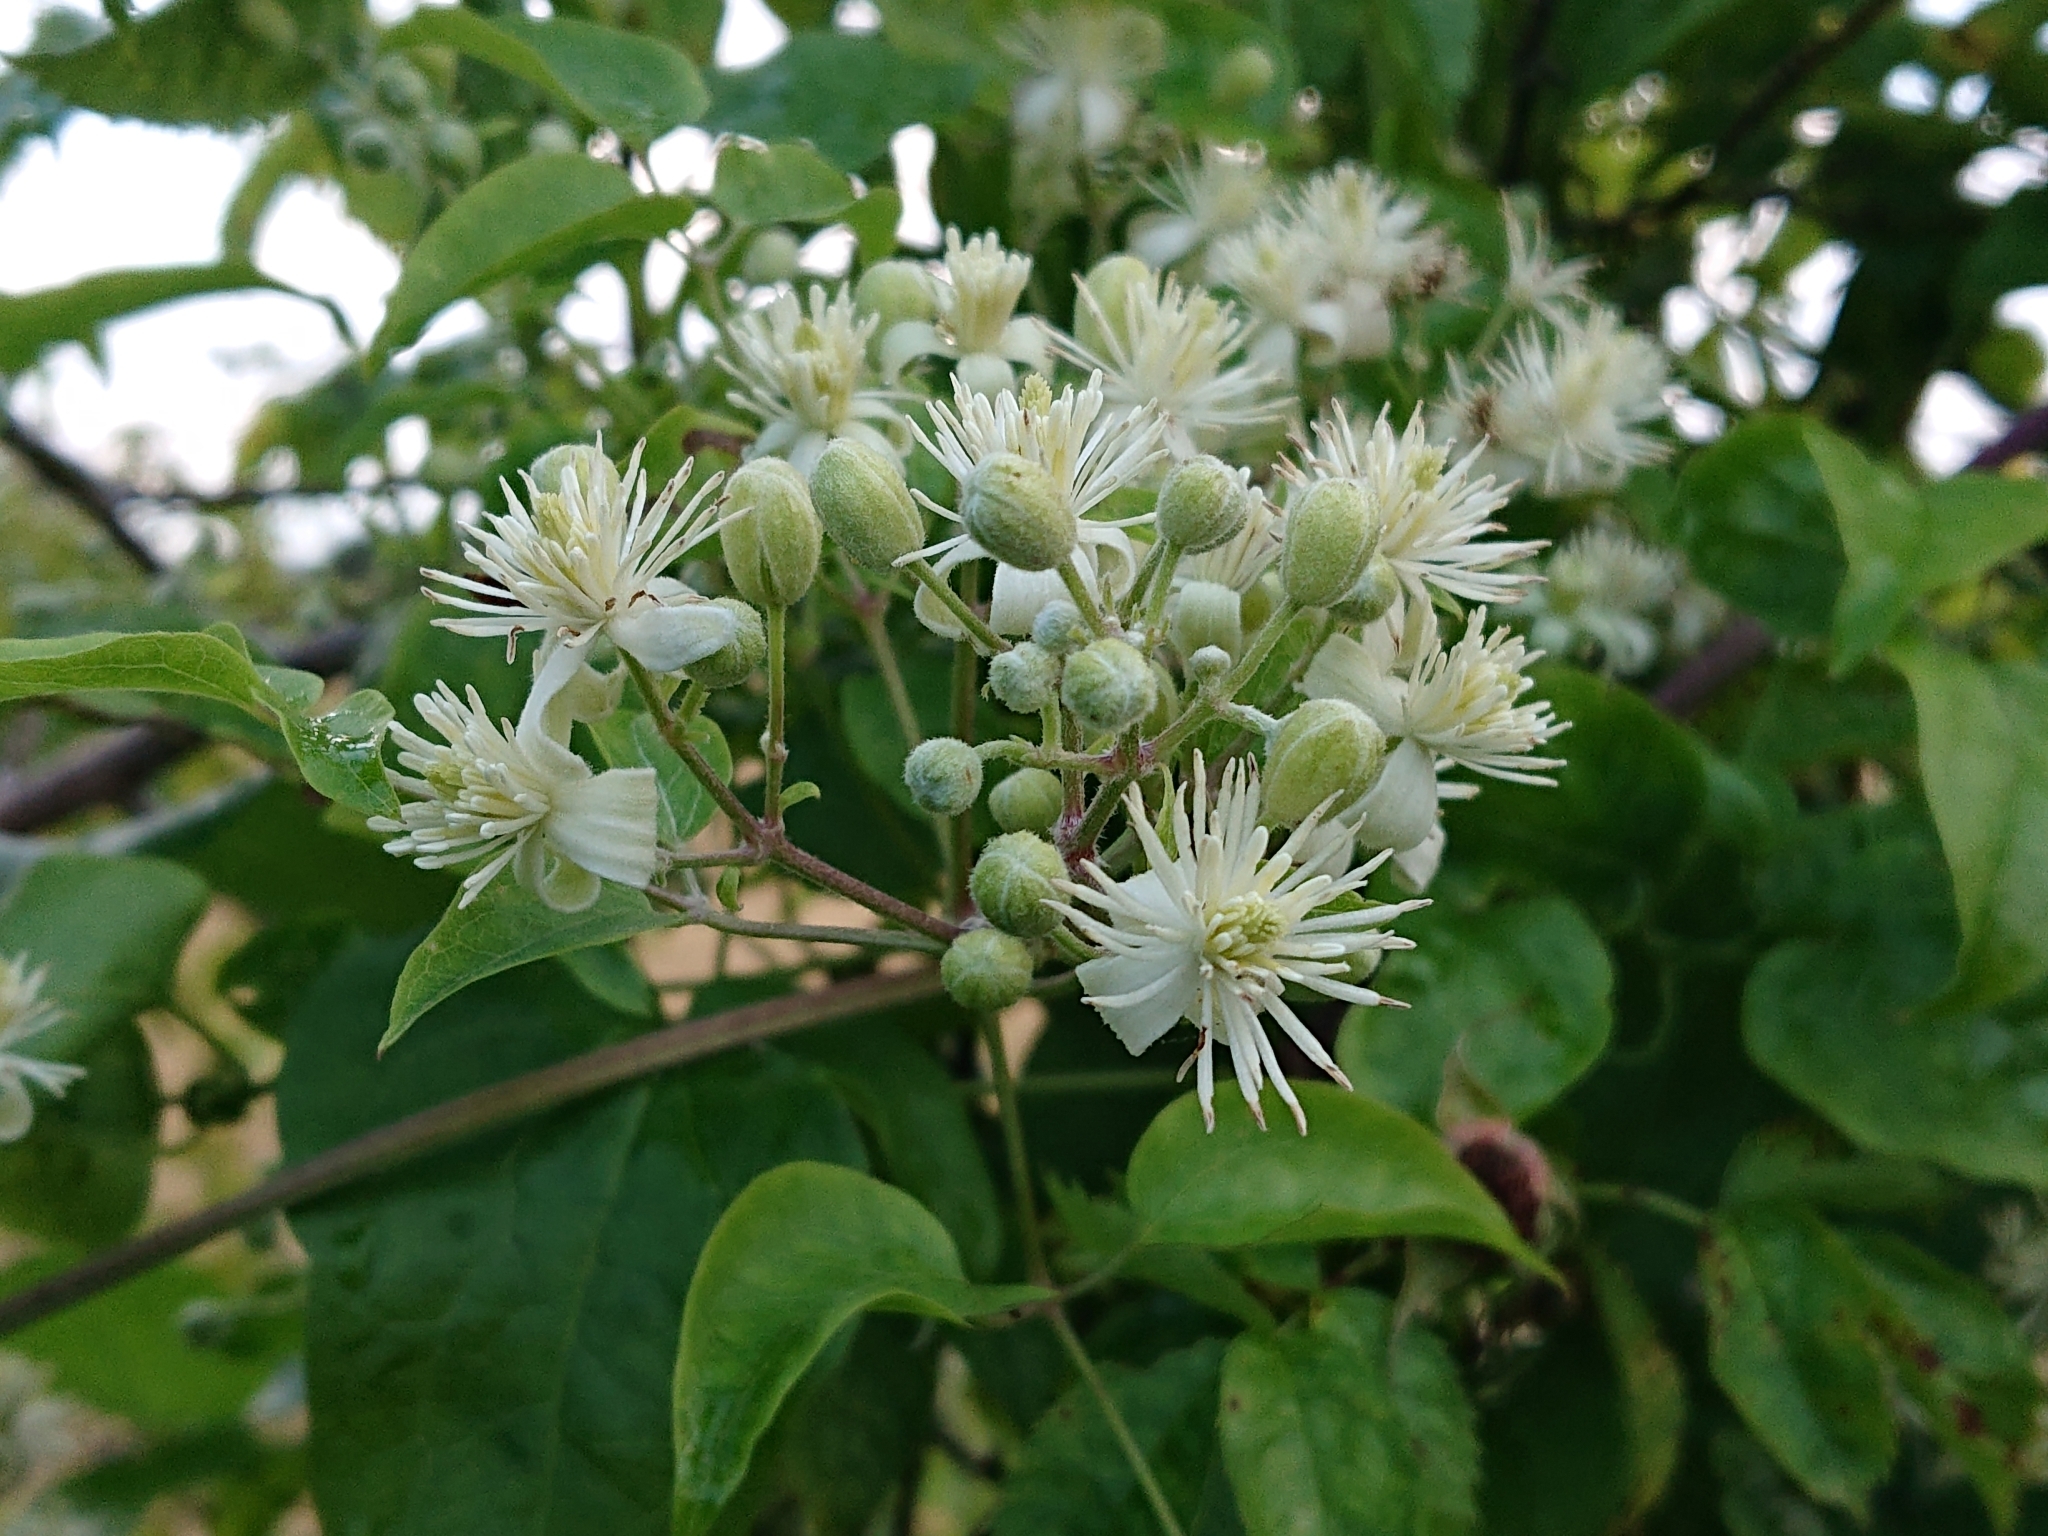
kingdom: Plantae
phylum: Tracheophyta
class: Magnoliopsida
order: Ranunculales
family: Ranunculaceae
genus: Clematis
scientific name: Clematis vitalba
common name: Evergreen clematis
